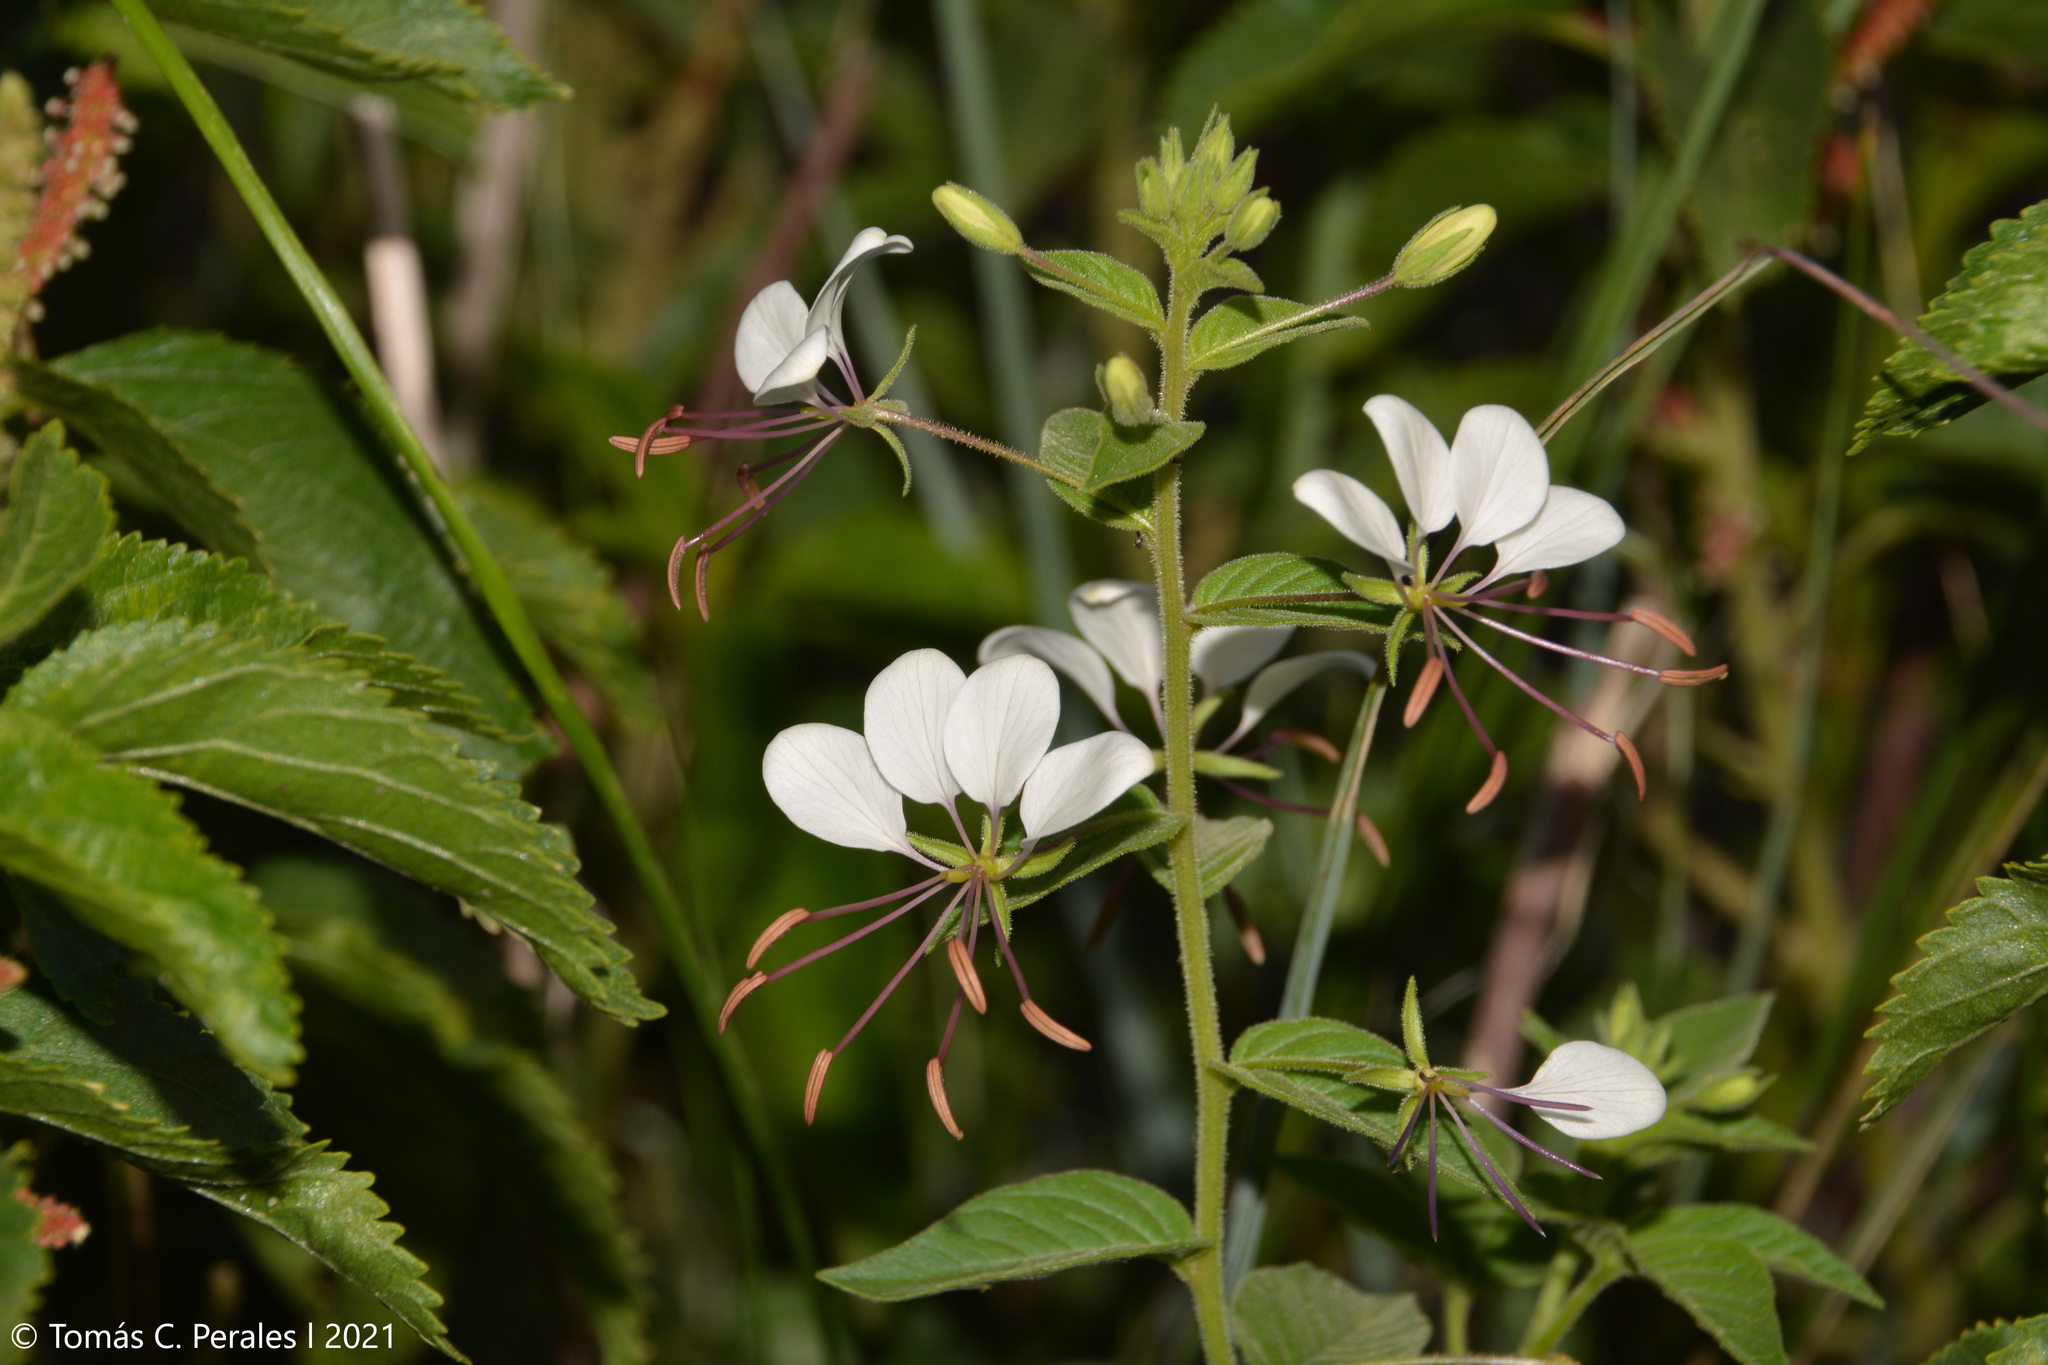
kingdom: Plantae
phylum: Tracheophyta
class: Magnoliopsida
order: Brassicales
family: Cleomaceae
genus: Tarenaya
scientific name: Tarenaya cordobensis
